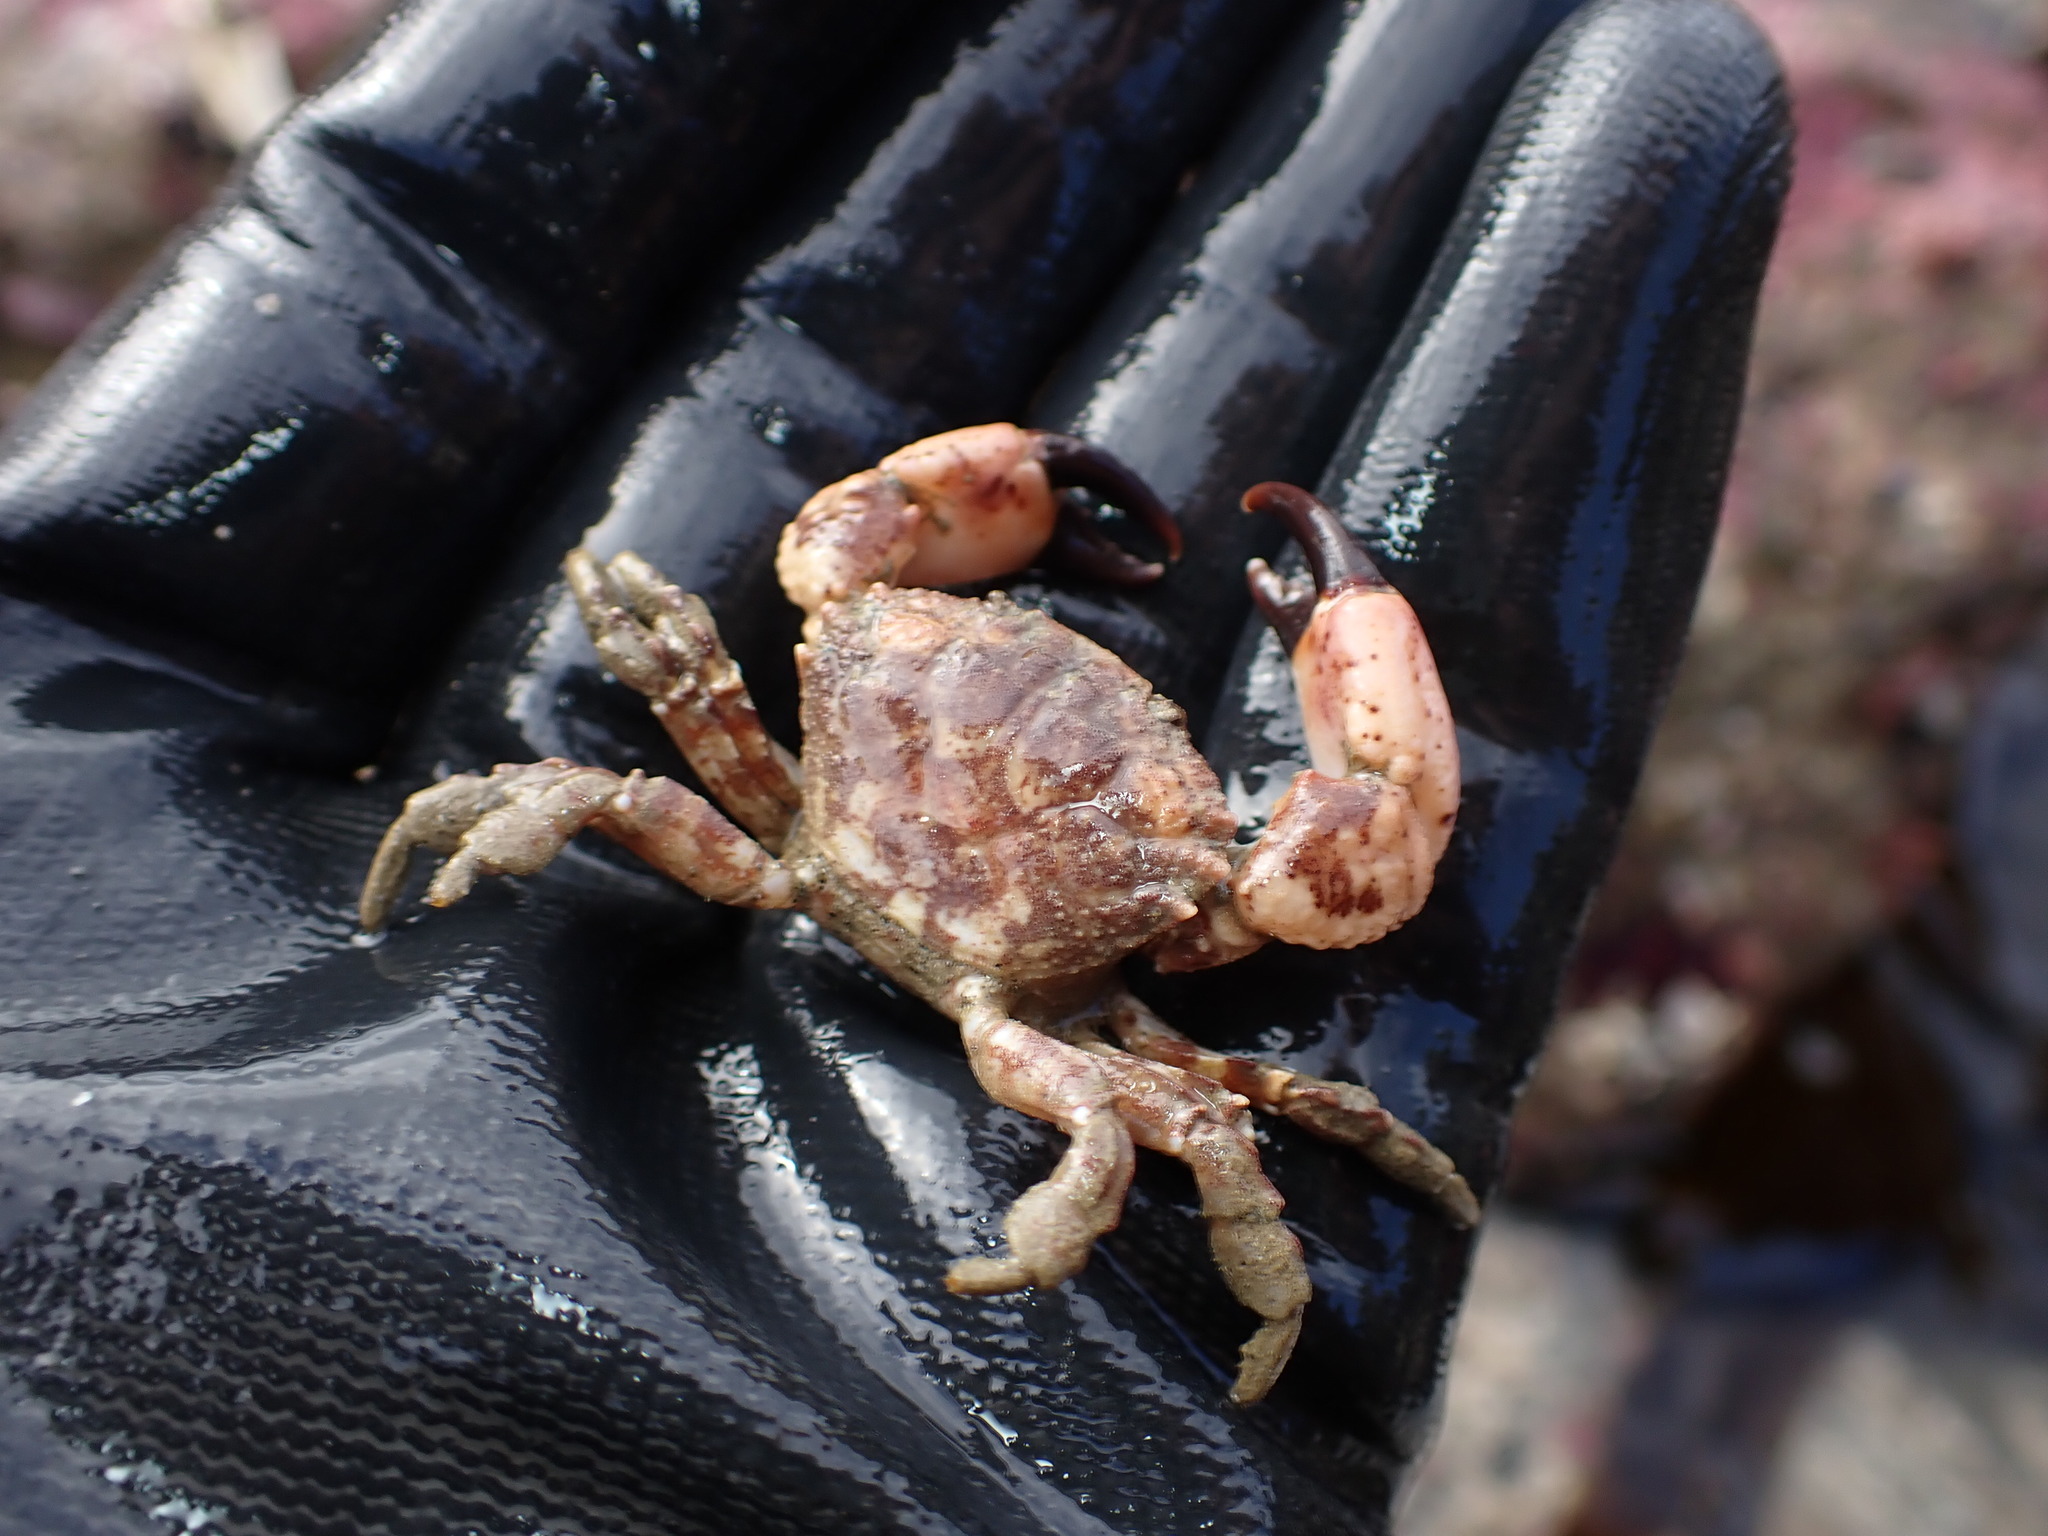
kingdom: Animalia
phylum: Arthropoda
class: Malacostraca
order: Decapoda
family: Panopeidae
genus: Lophopanopeus
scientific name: Lophopanopeus bellus
